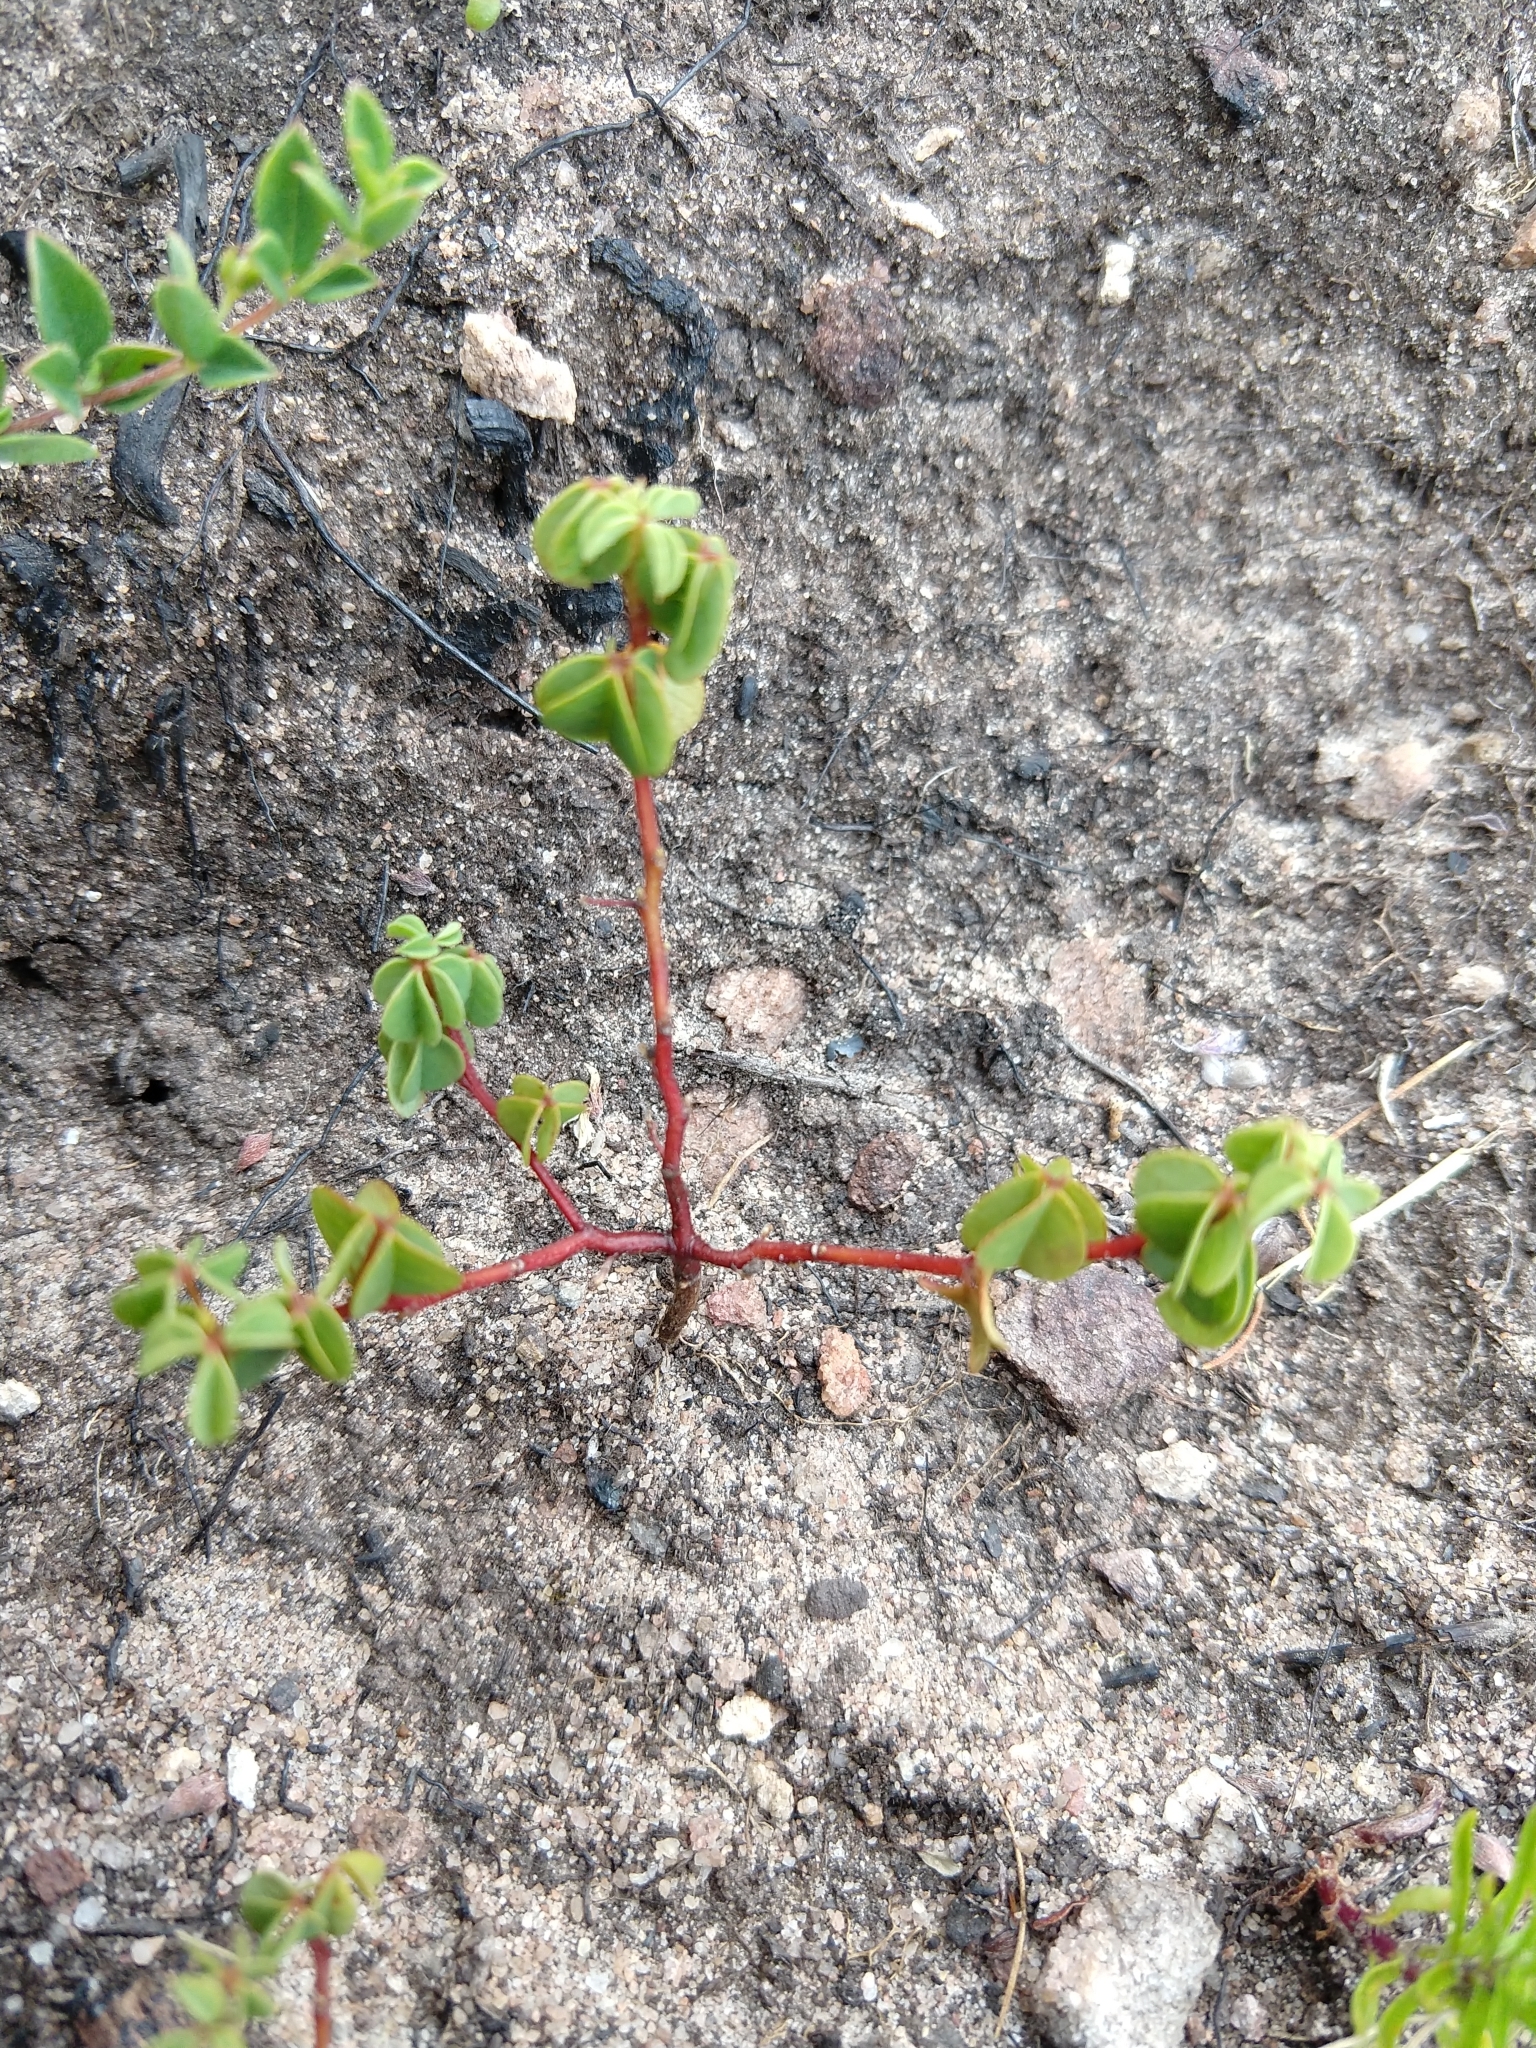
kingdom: Plantae
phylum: Tracheophyta
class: Magnoliopsida
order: Fabales
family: Fabaceae
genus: Hypocalyptus
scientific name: Hypocalyptus oxalidifolius
